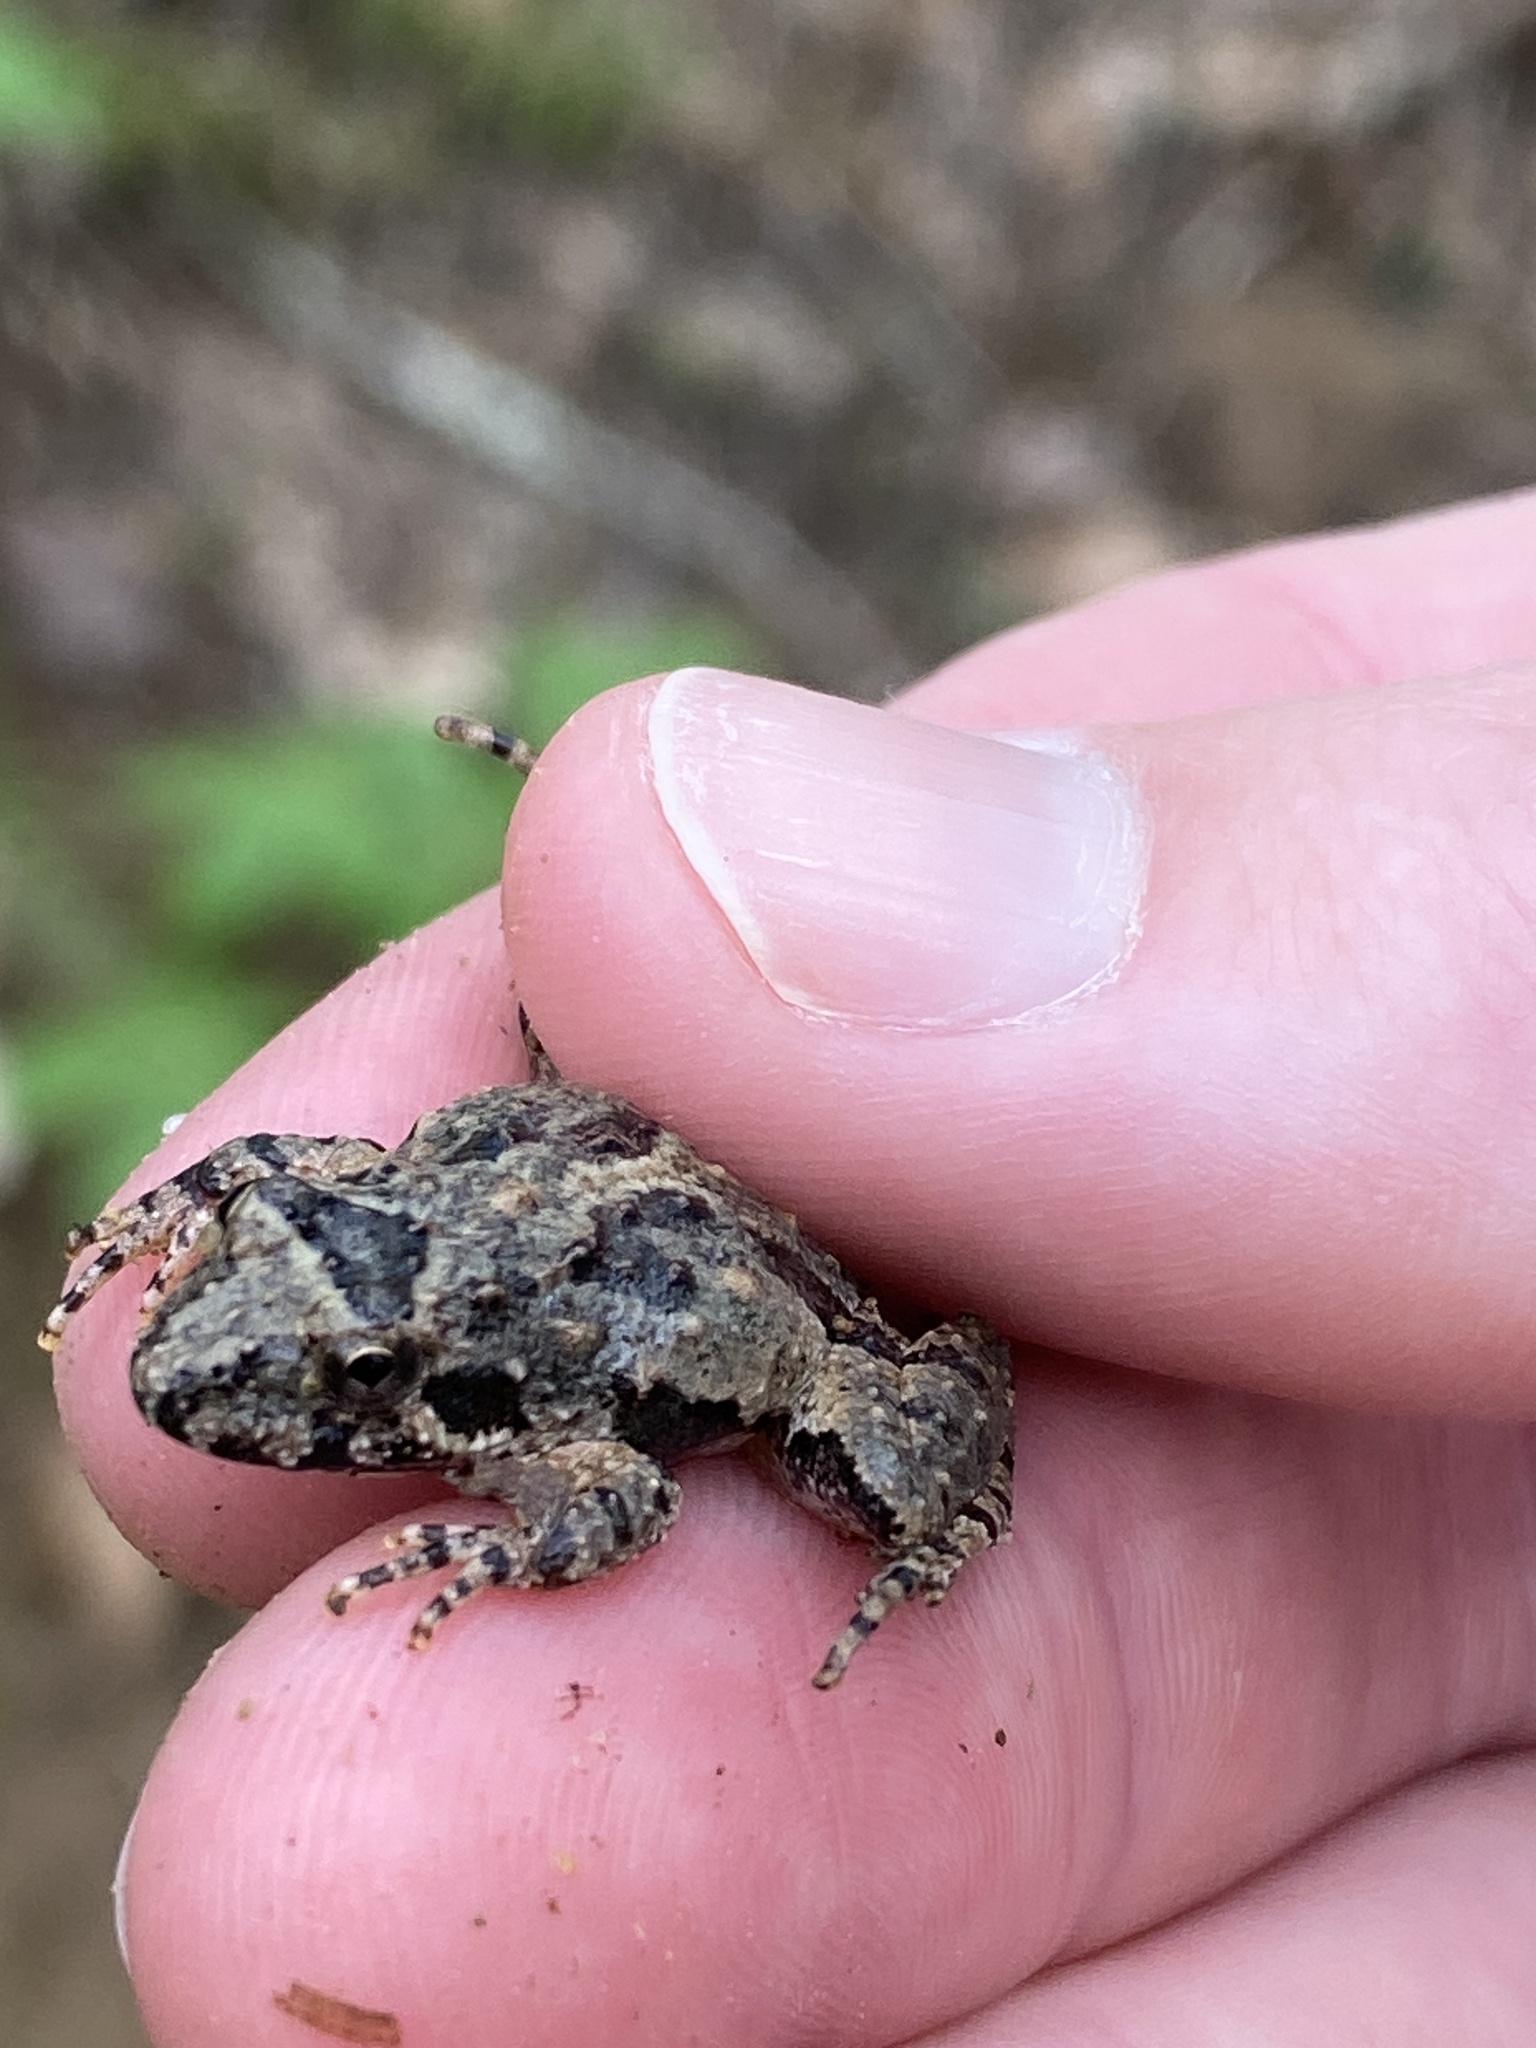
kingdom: Animalia
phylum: Chordata
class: Amphibia
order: Anura
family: Hylidae
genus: Acris
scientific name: Acris crepitans
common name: Northern cricket frog
